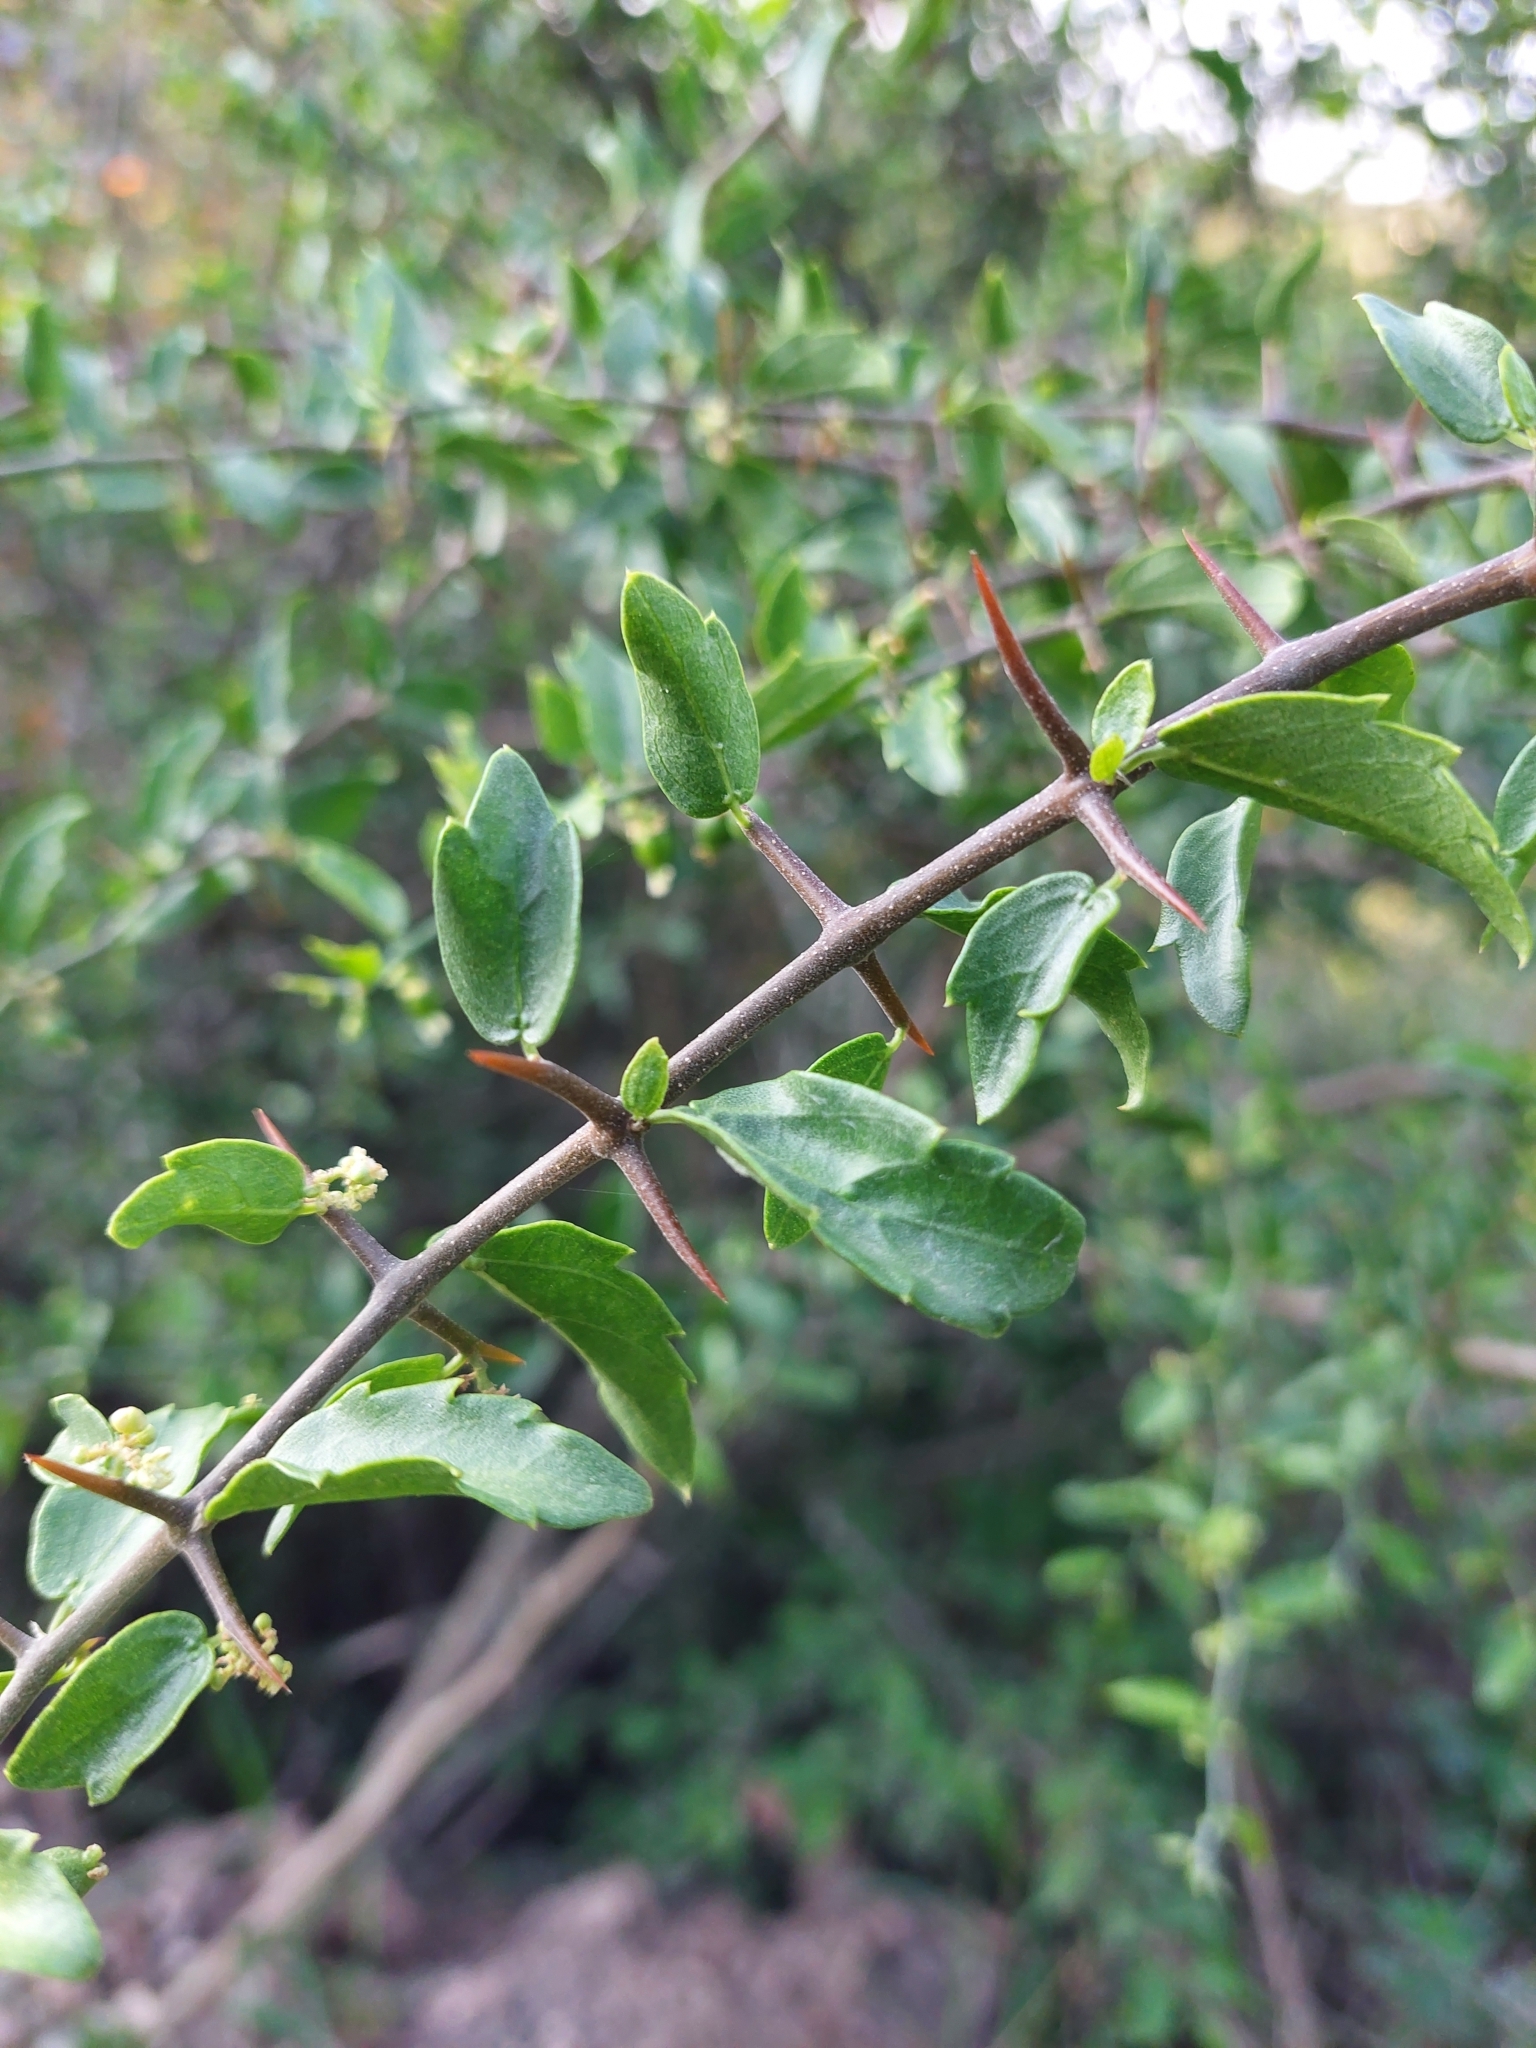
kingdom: Plantae
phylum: Tracheophyta
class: Magnoliopsida
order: Rosales
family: Cannabaceae
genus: Celtis
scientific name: Celtis pallida
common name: Desert hackberry
